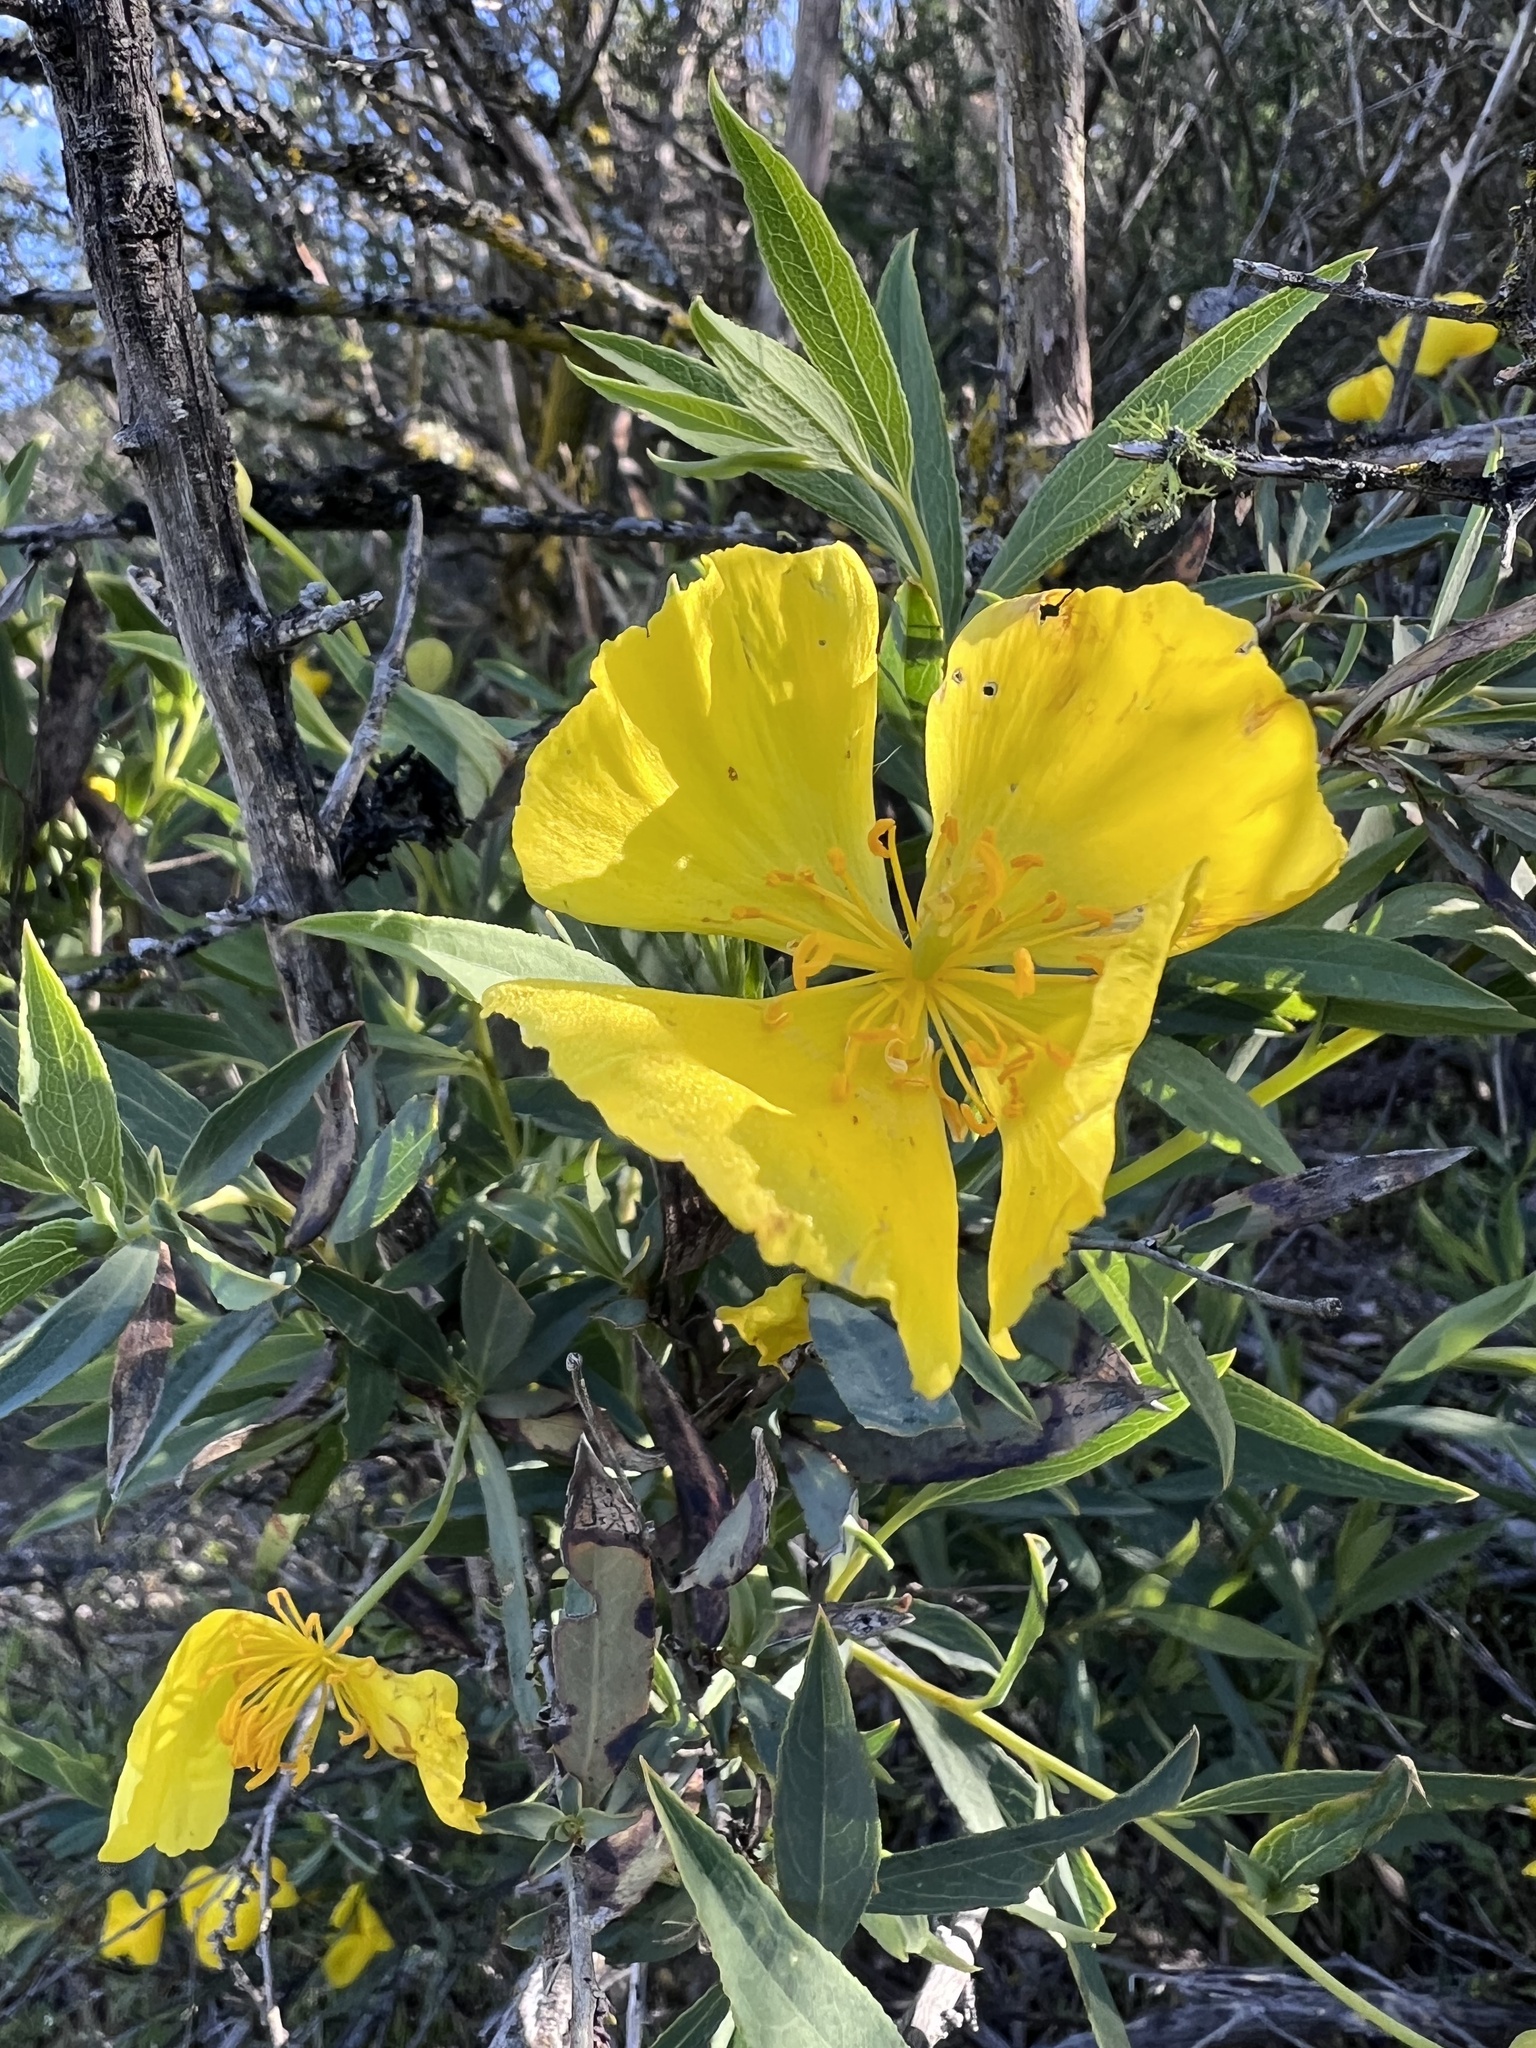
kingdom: Plantae
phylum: Tracheophyta
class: Magnoliopsida
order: Ranunculales
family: Papaveraceae
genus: Dendromecon
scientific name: Dendromecon rigida
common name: Tree poppy
